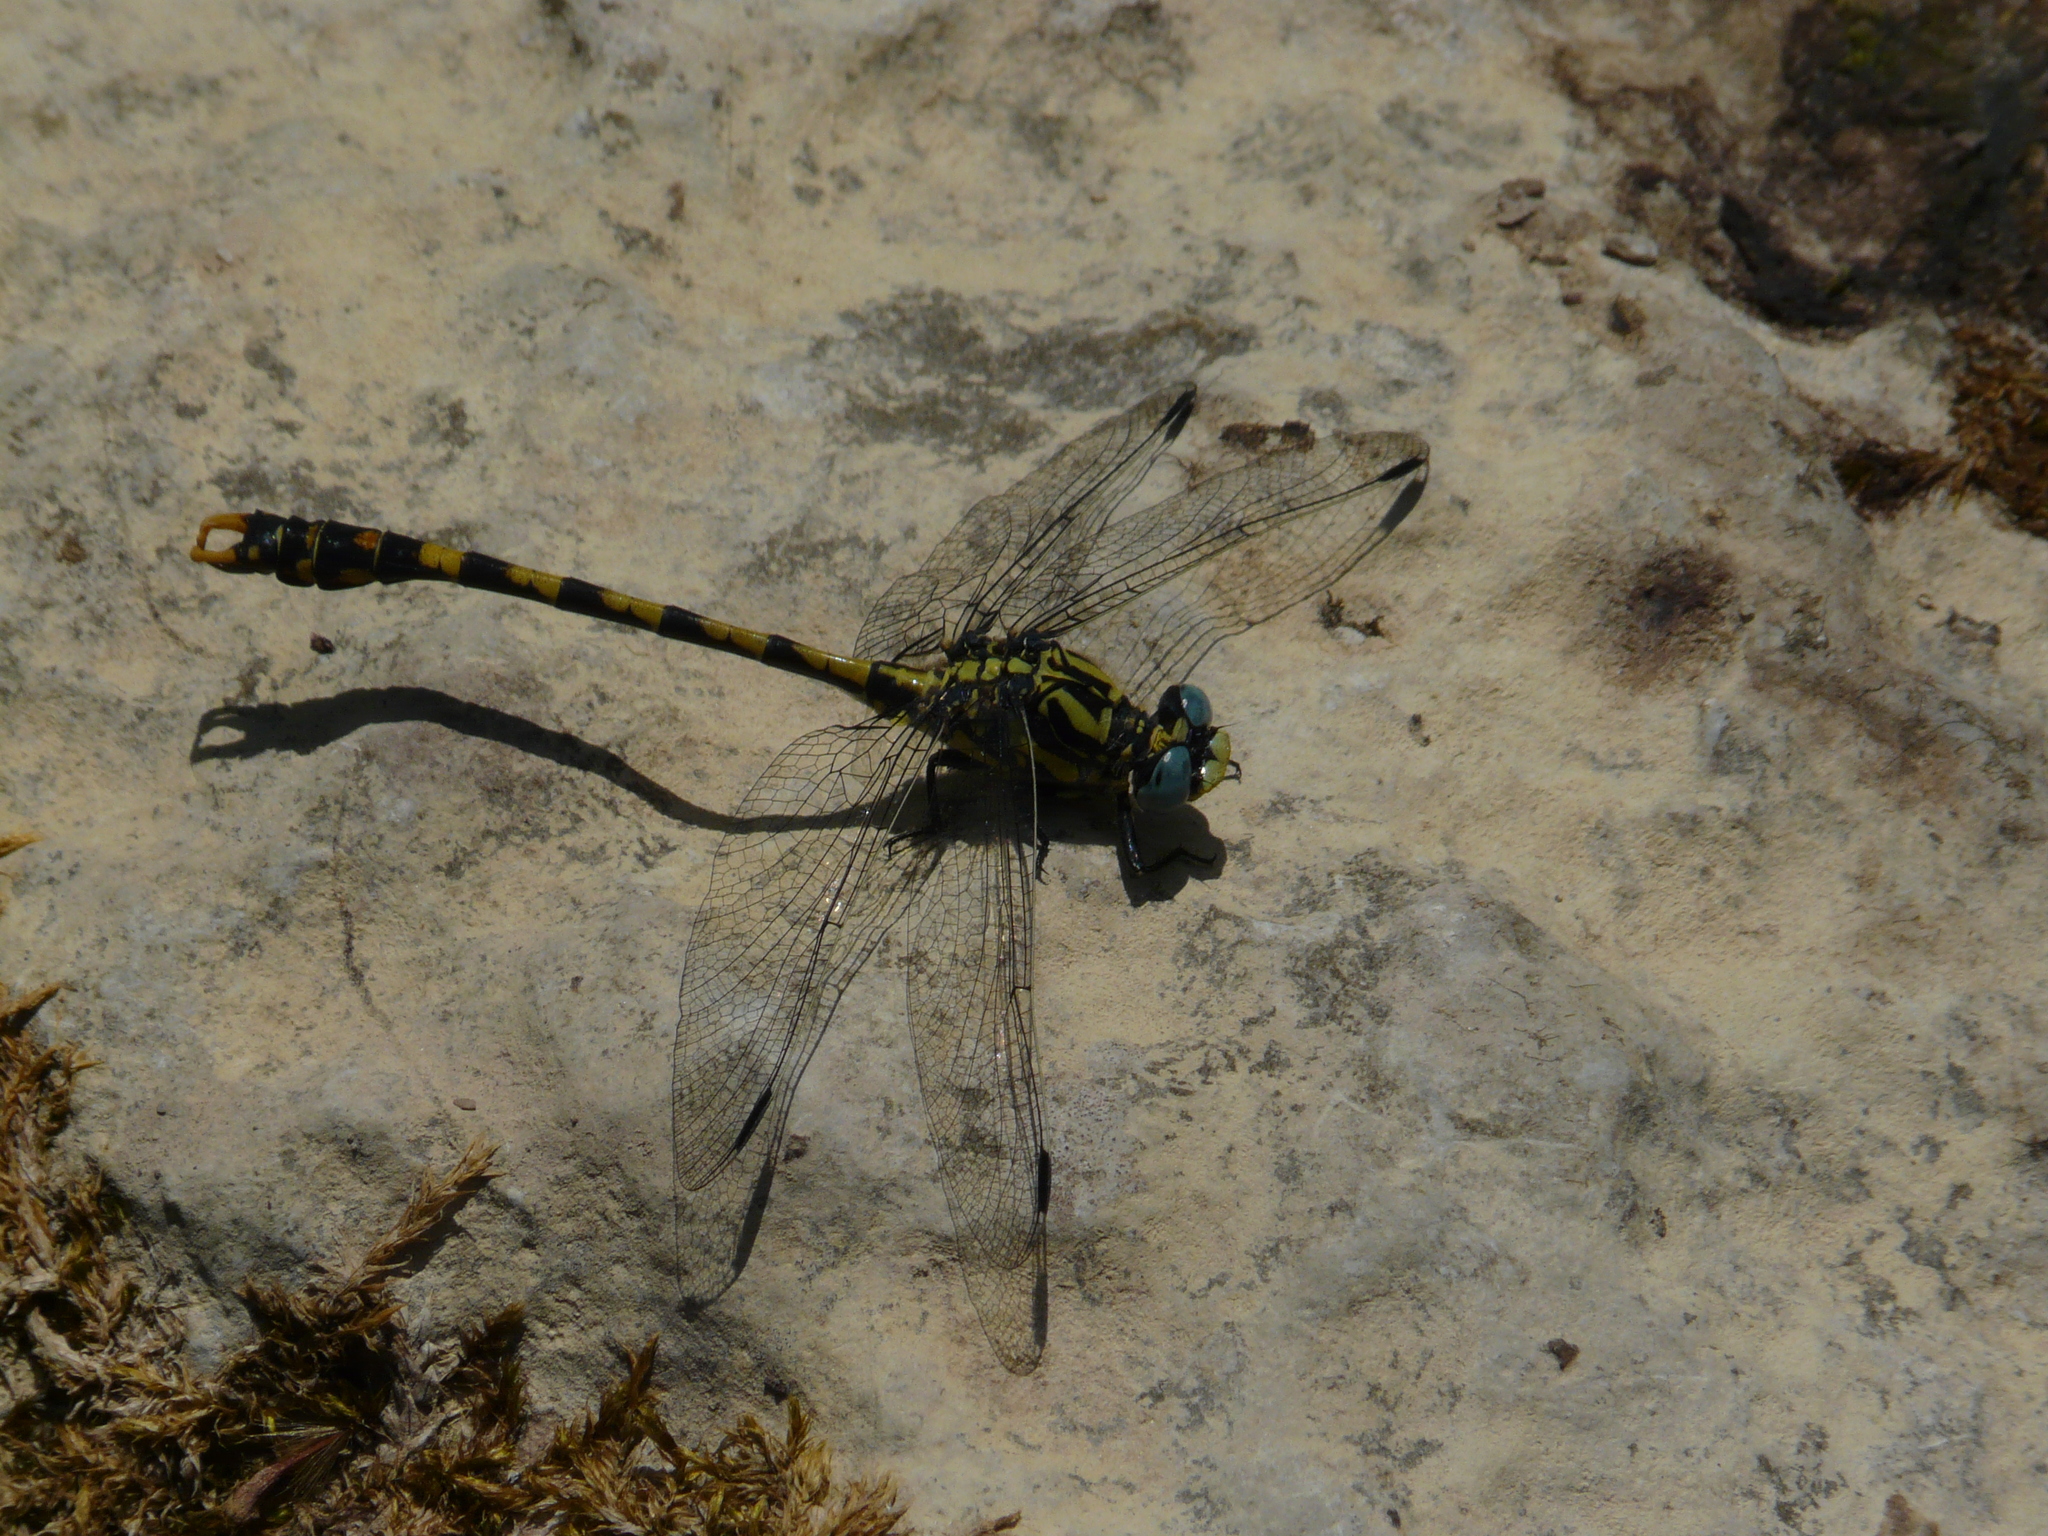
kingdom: Animalia
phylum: Arthropoda
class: Insecta
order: Odonata
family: Gomphidae
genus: Onychogomphus
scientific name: Onychogomphus uncatus
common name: Large pincertail
